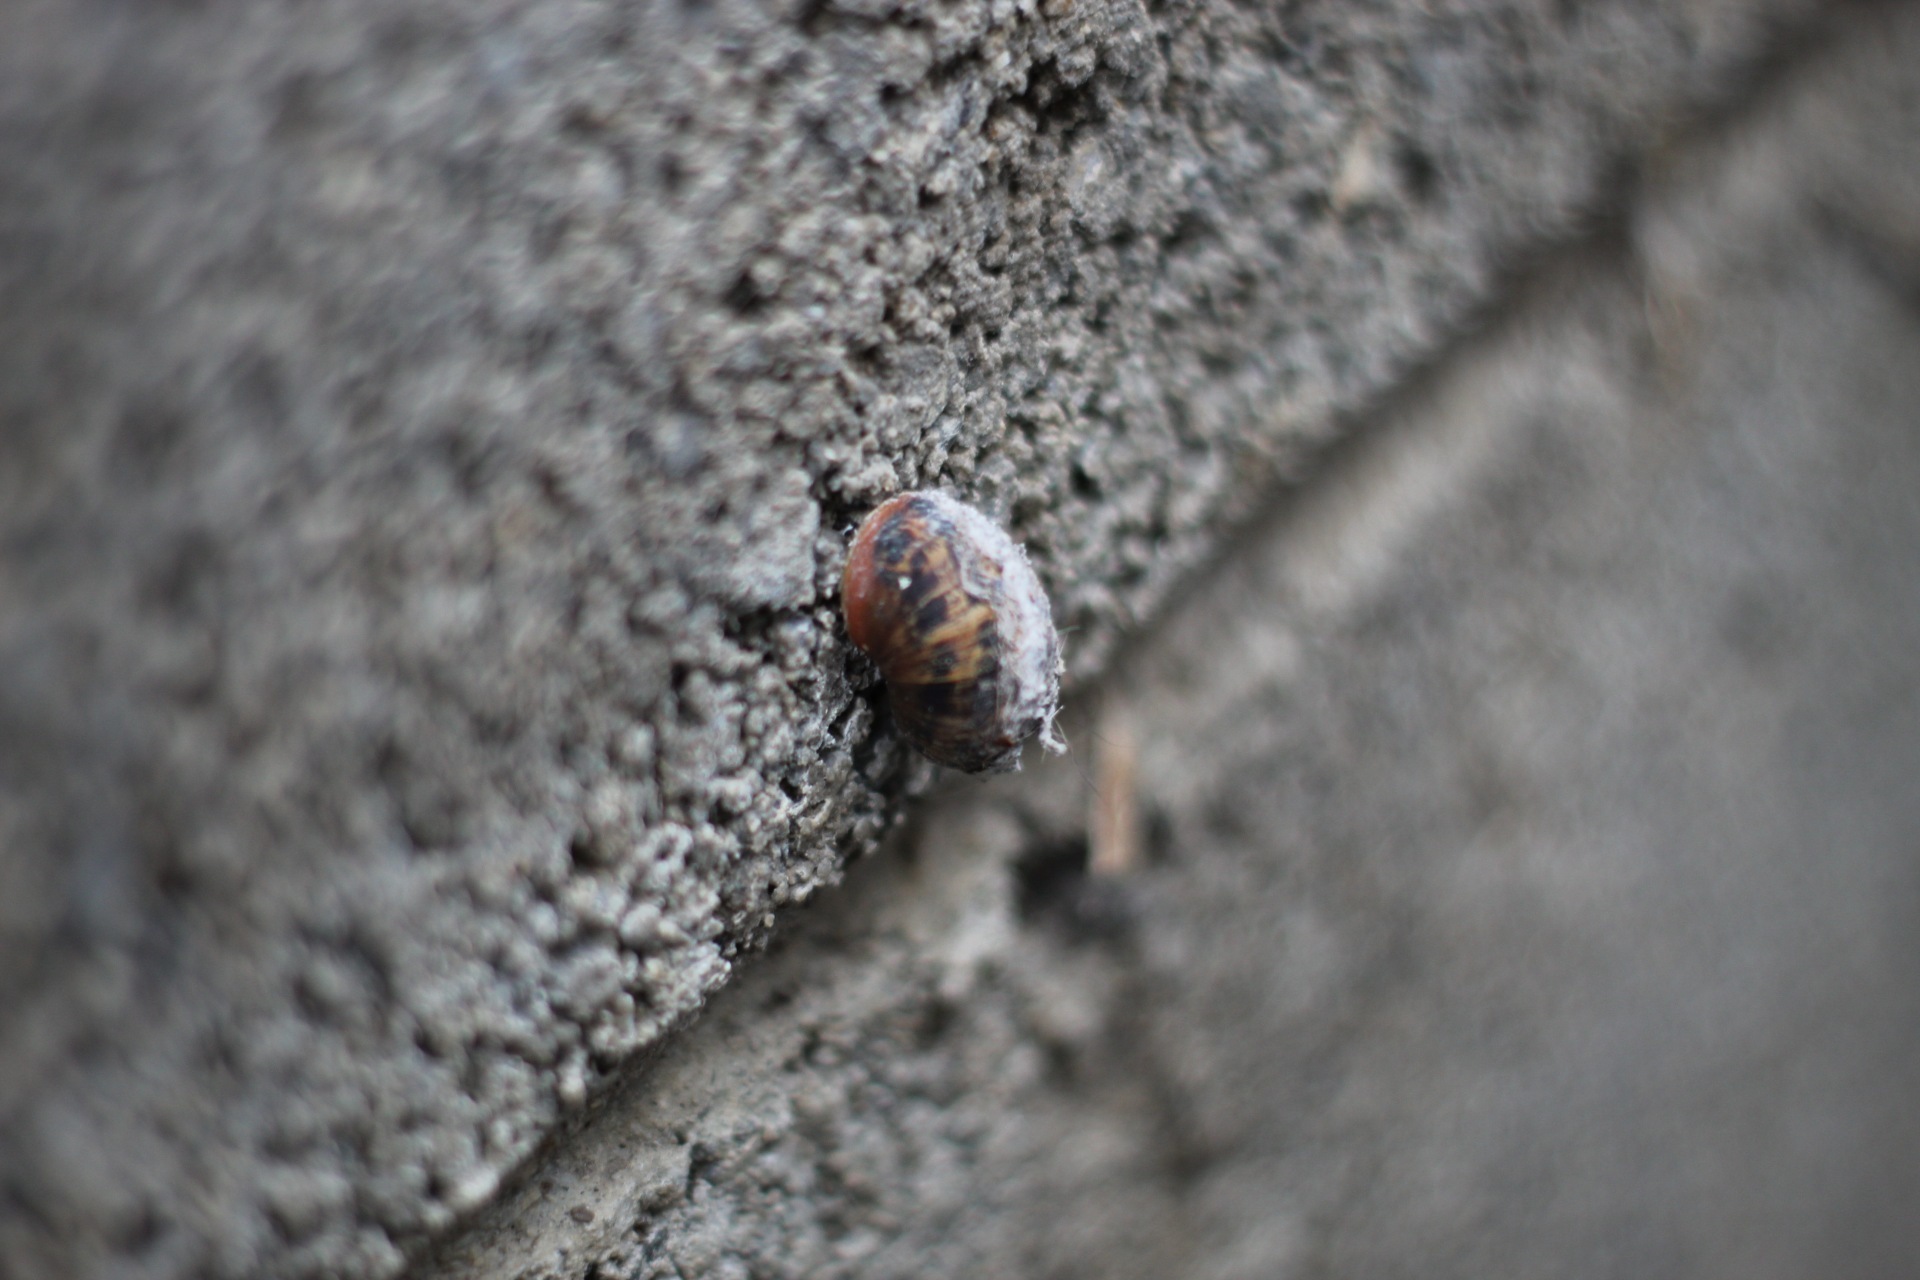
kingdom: Animalia
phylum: Mollusca
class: Gastropoda
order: Stylommatophora
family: Helicidae
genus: Cornu
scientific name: Cornu aspersum
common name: Brown garden snail
